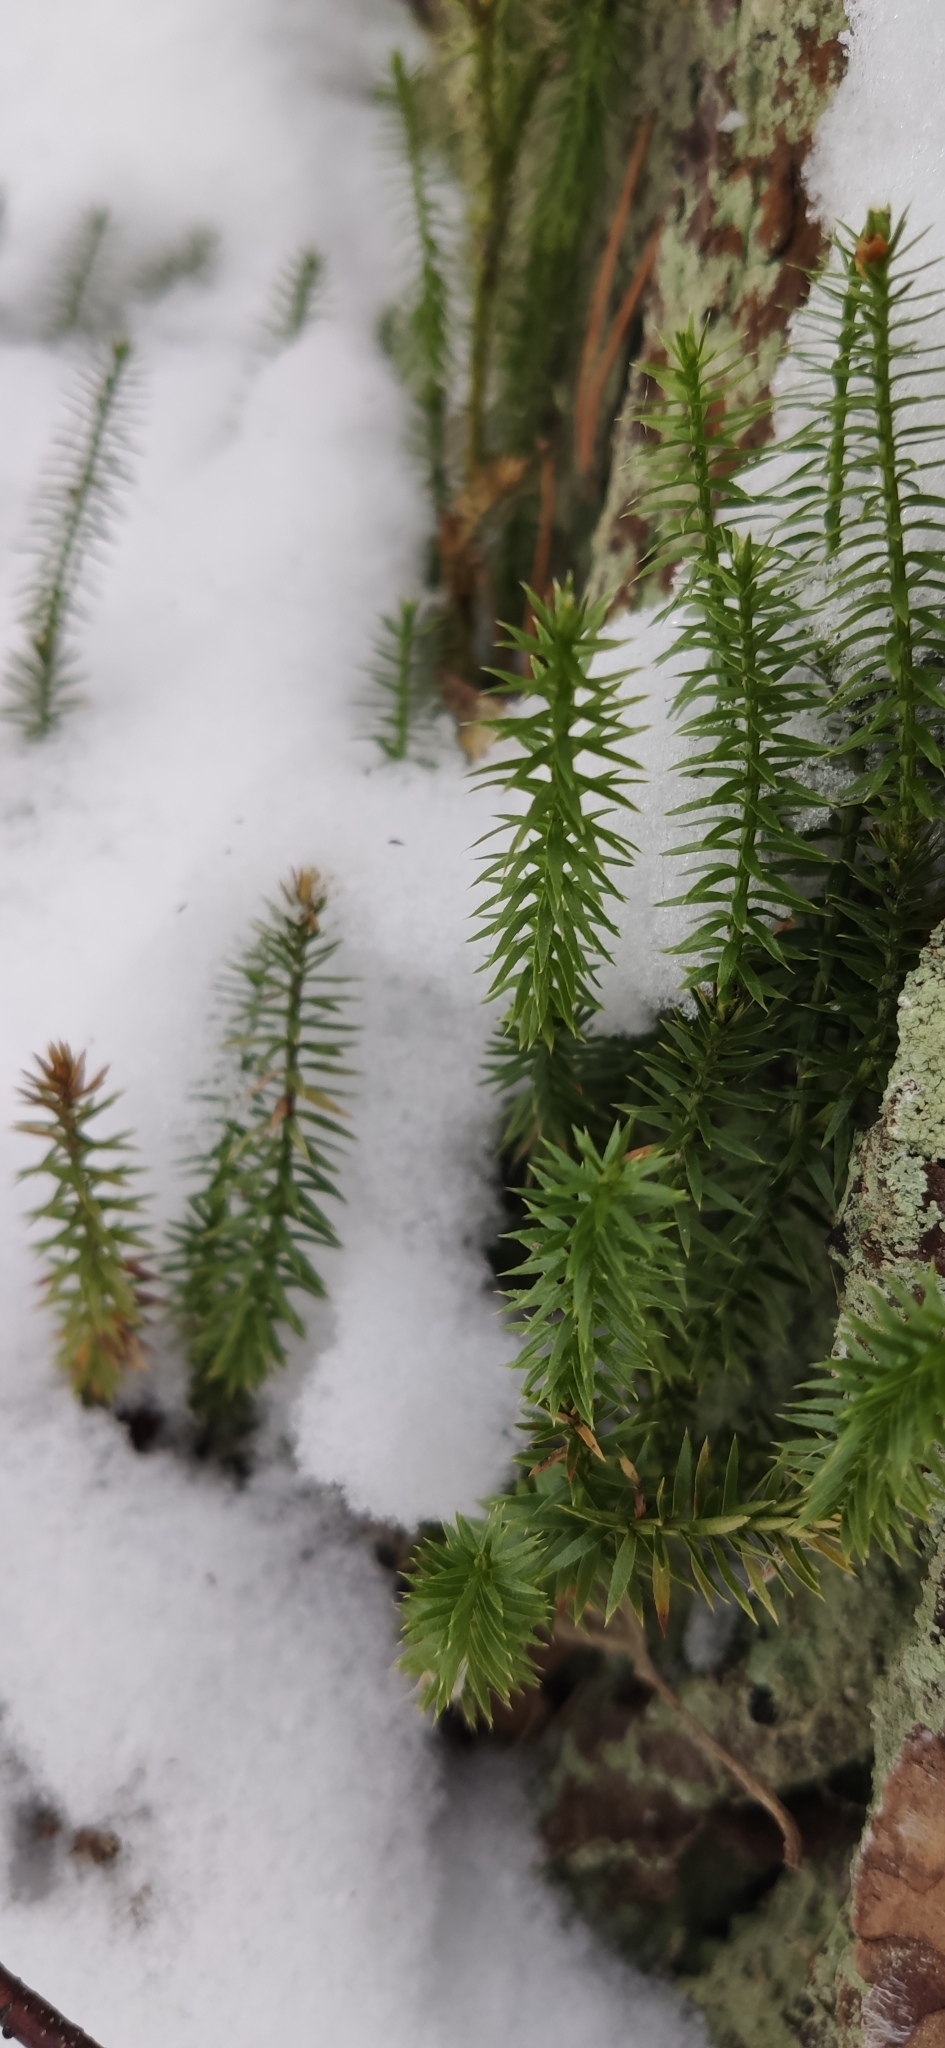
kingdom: Plantae
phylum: Tracheophyta
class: Lycopodiopsida
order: Lycopodiales
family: Lycopodiaceae
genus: Spinulum
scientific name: Spinulum annotinum
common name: Interrupted club-moss
